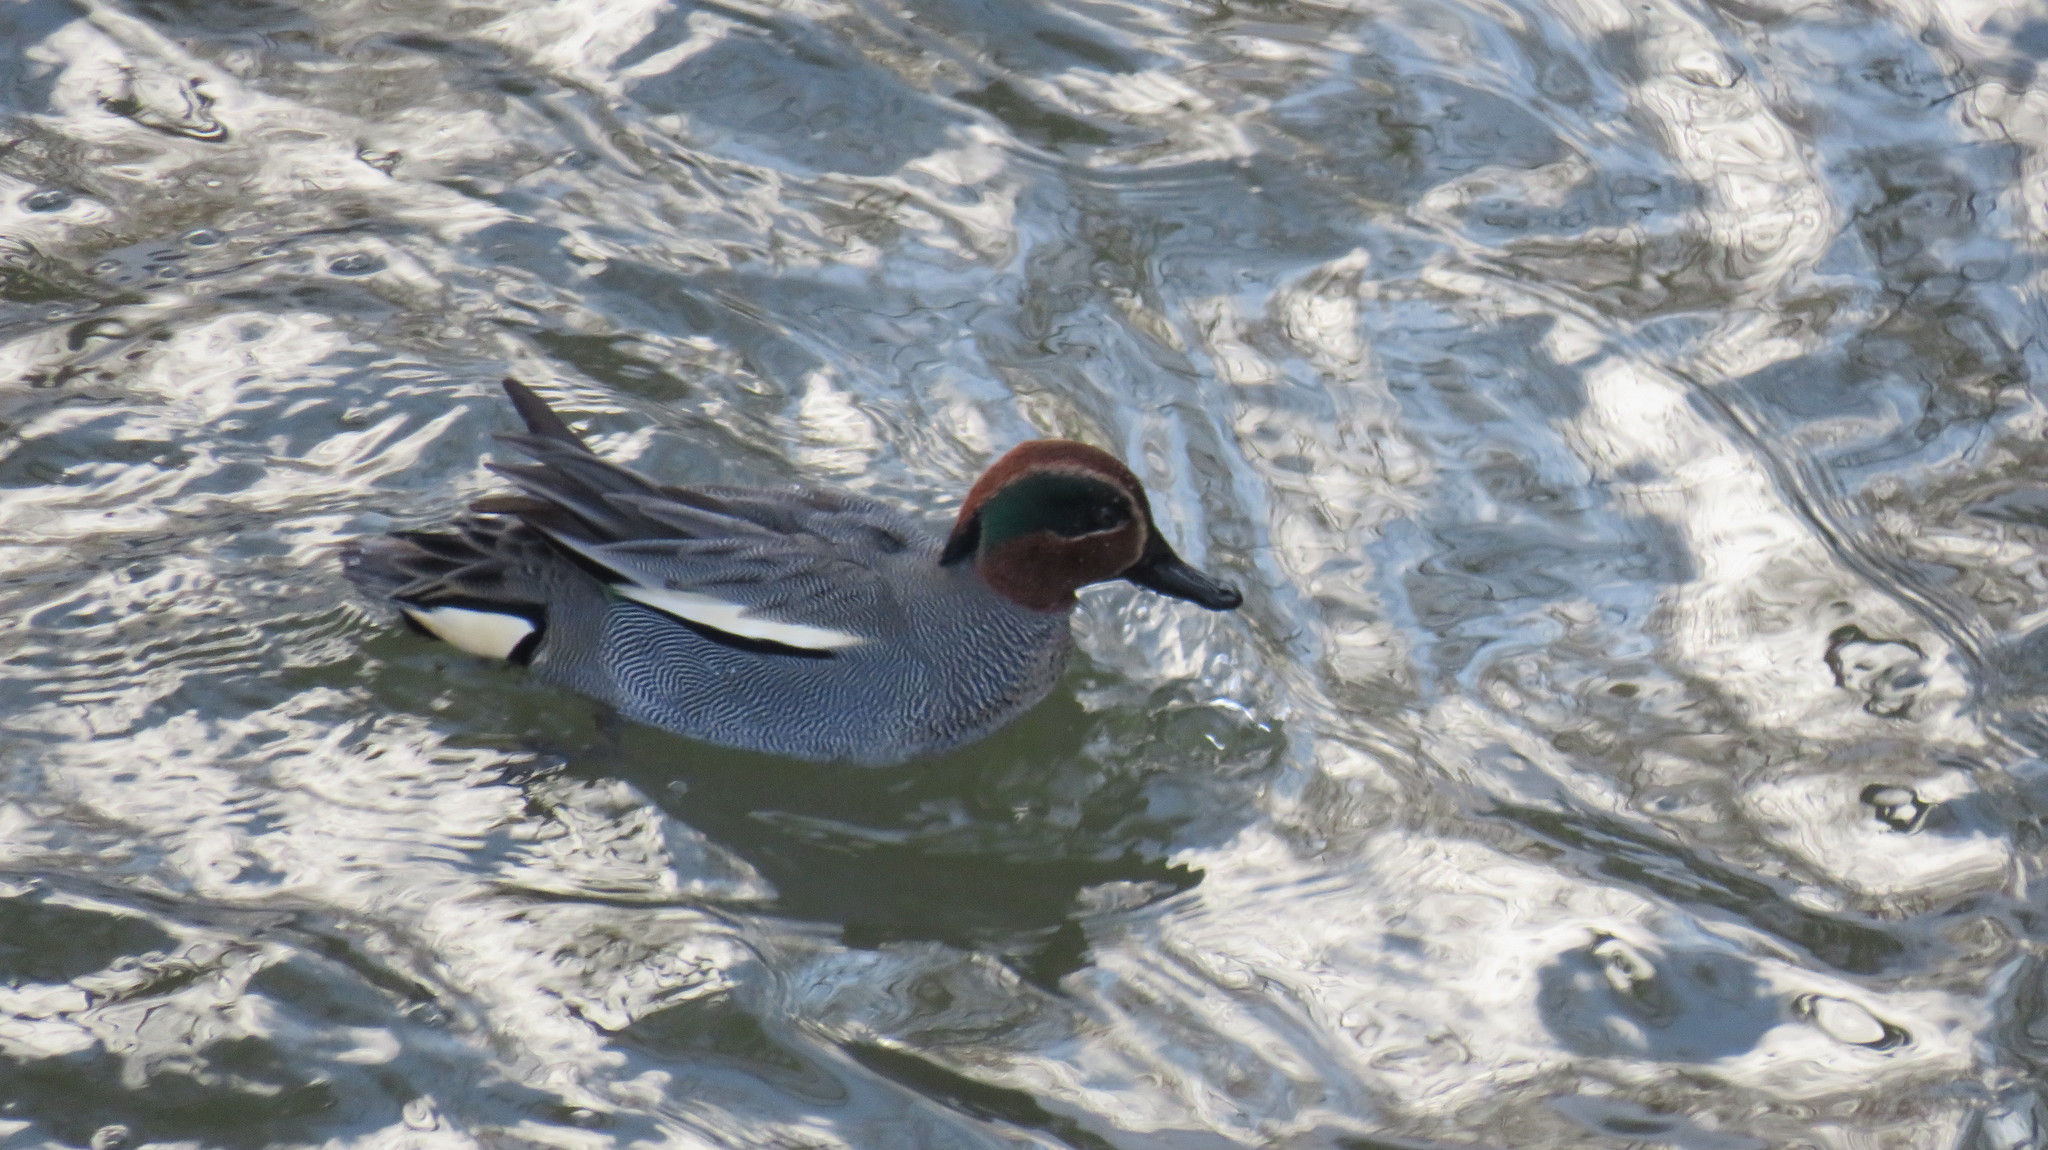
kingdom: Animalia
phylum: Chordata
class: Aves
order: Anseriformes
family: Anatidae
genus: Anas
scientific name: Anas crecca
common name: Eurasian teal
